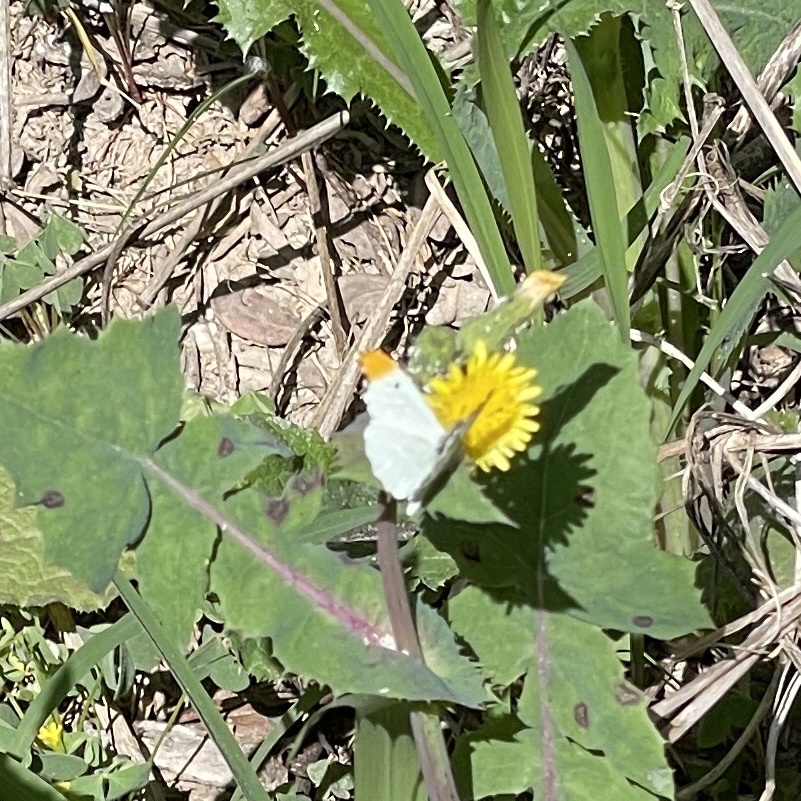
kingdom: Animalia
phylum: Arthropoda
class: Insecta
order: Lepidoptera
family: Pieridae
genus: Anthocharis
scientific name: Anthocharis midea
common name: Falcate orangetip
